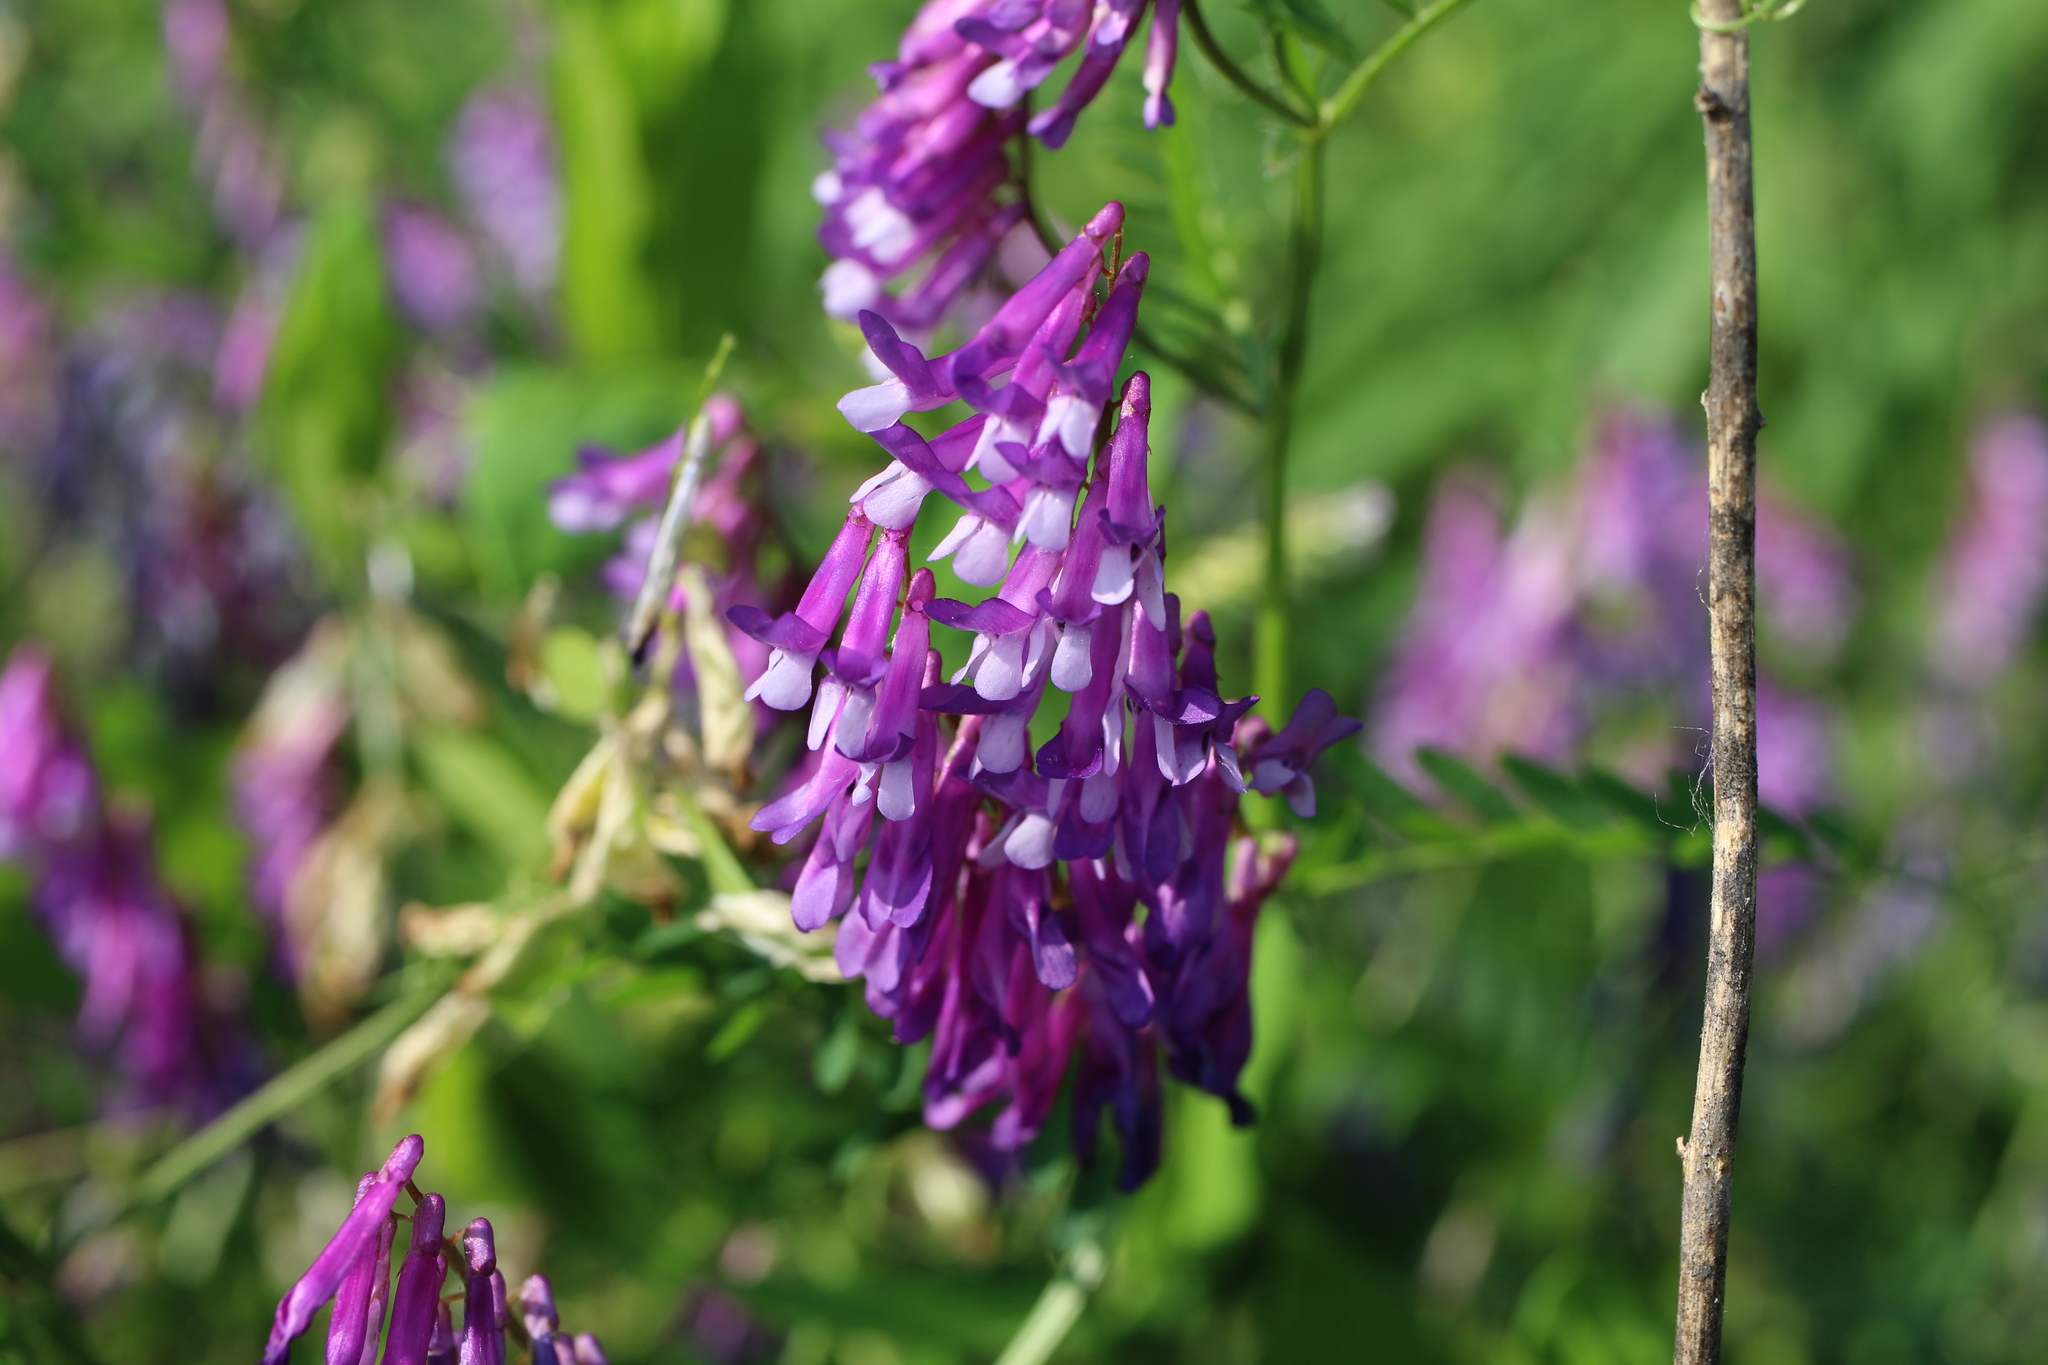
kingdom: Plantae
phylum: Tracheophyta
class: Magnoliopsida
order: Fabales
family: Fabaceae
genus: Vicia
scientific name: Vicia villosa
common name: Fodder vetch
